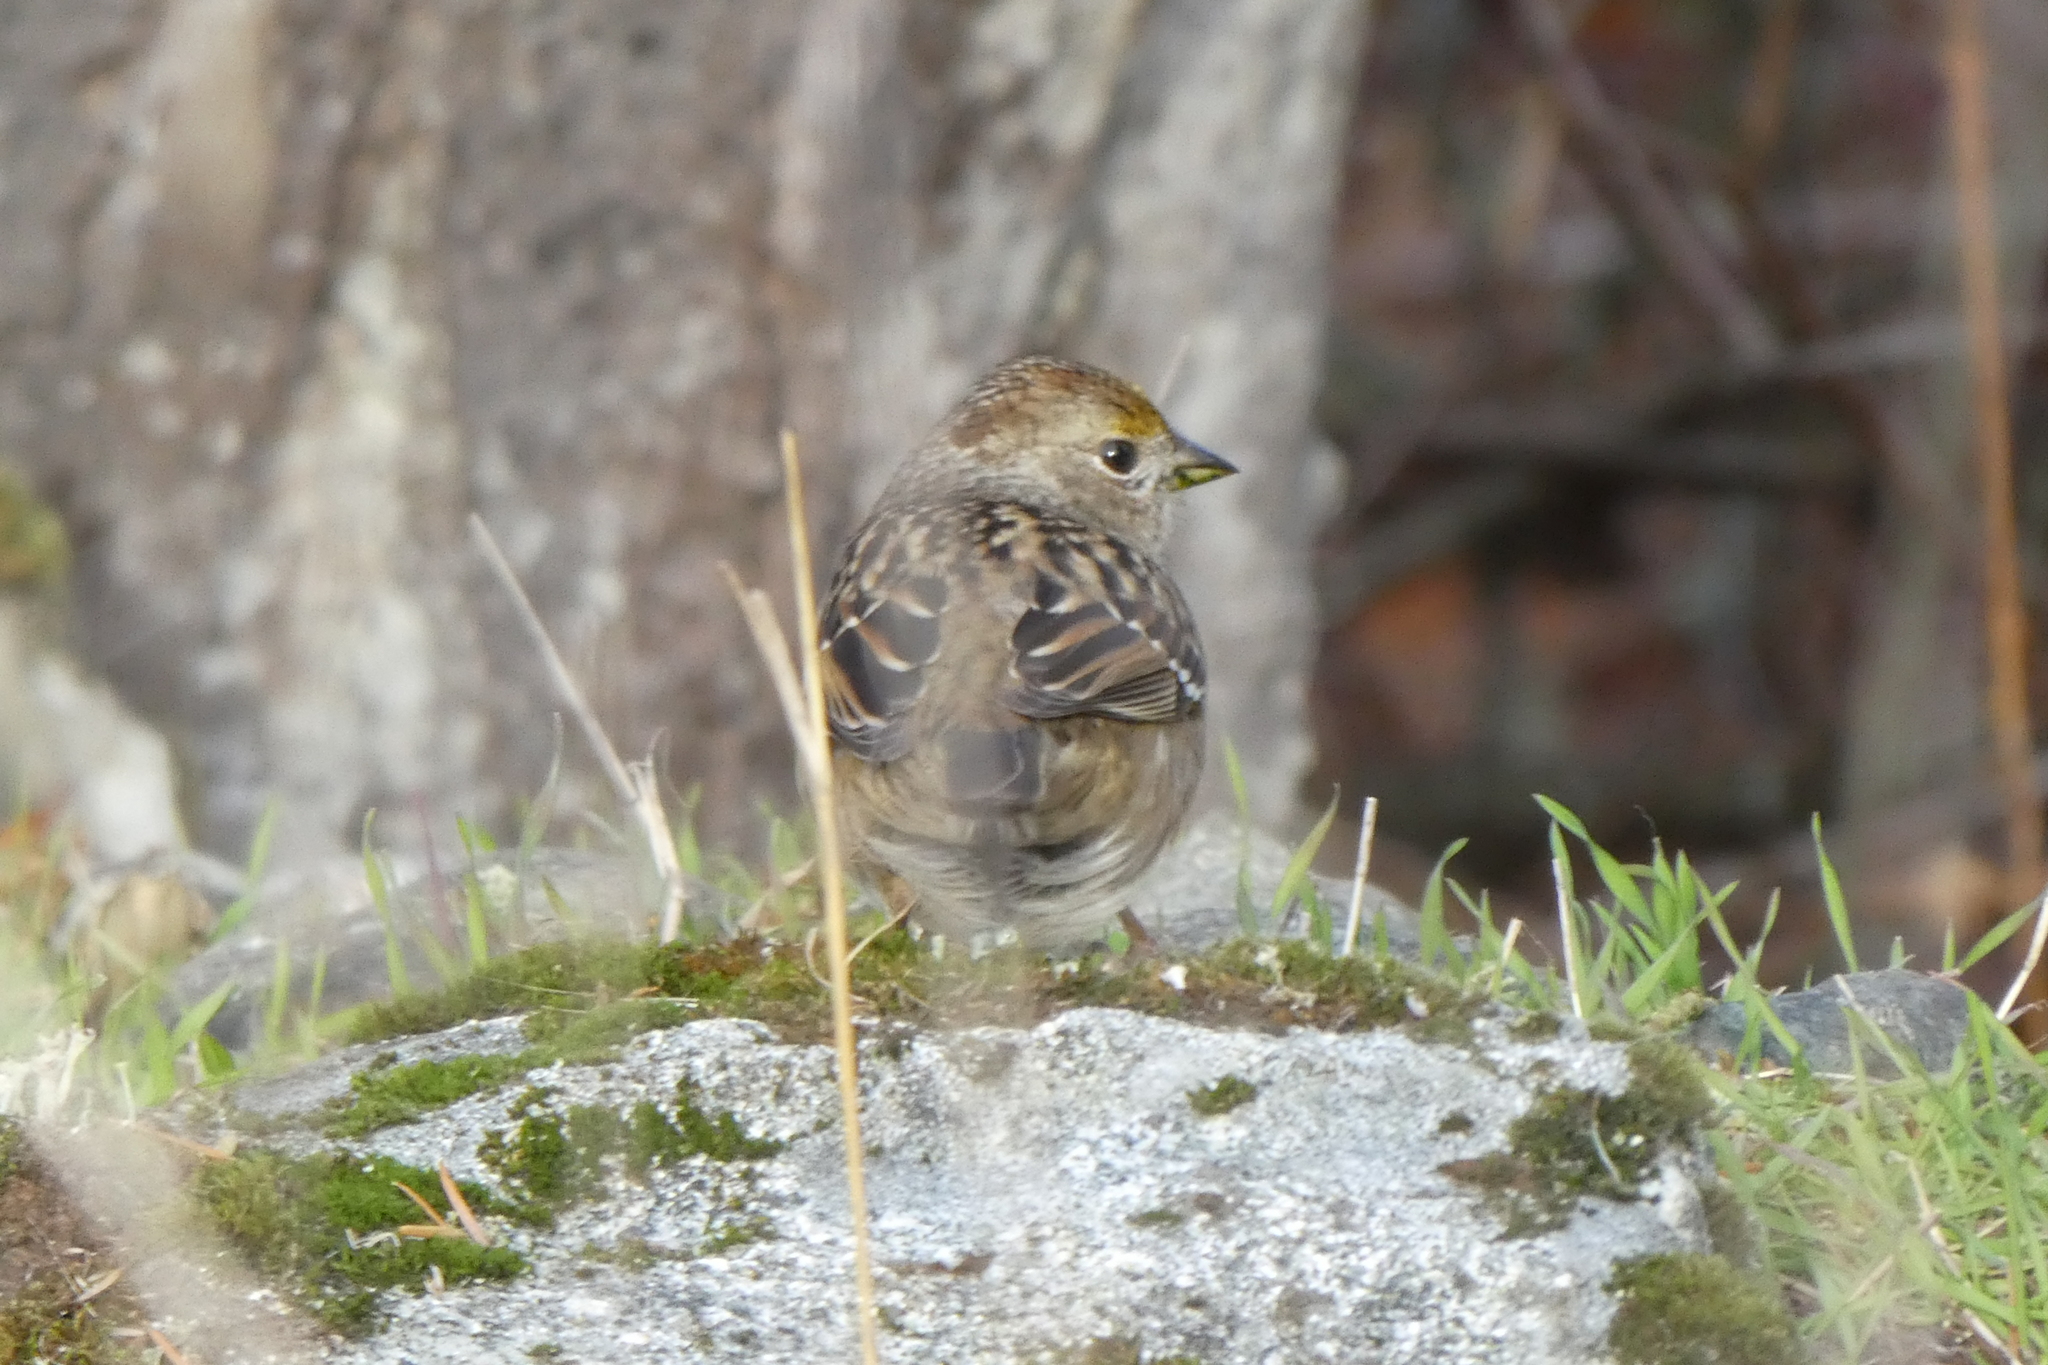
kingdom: Animalia
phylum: Chordata
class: Aves
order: Passeriformes
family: Passerellidae
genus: Zonotrichia
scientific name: Zonotrichia atricapilla
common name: Golden-crowned sparrow
